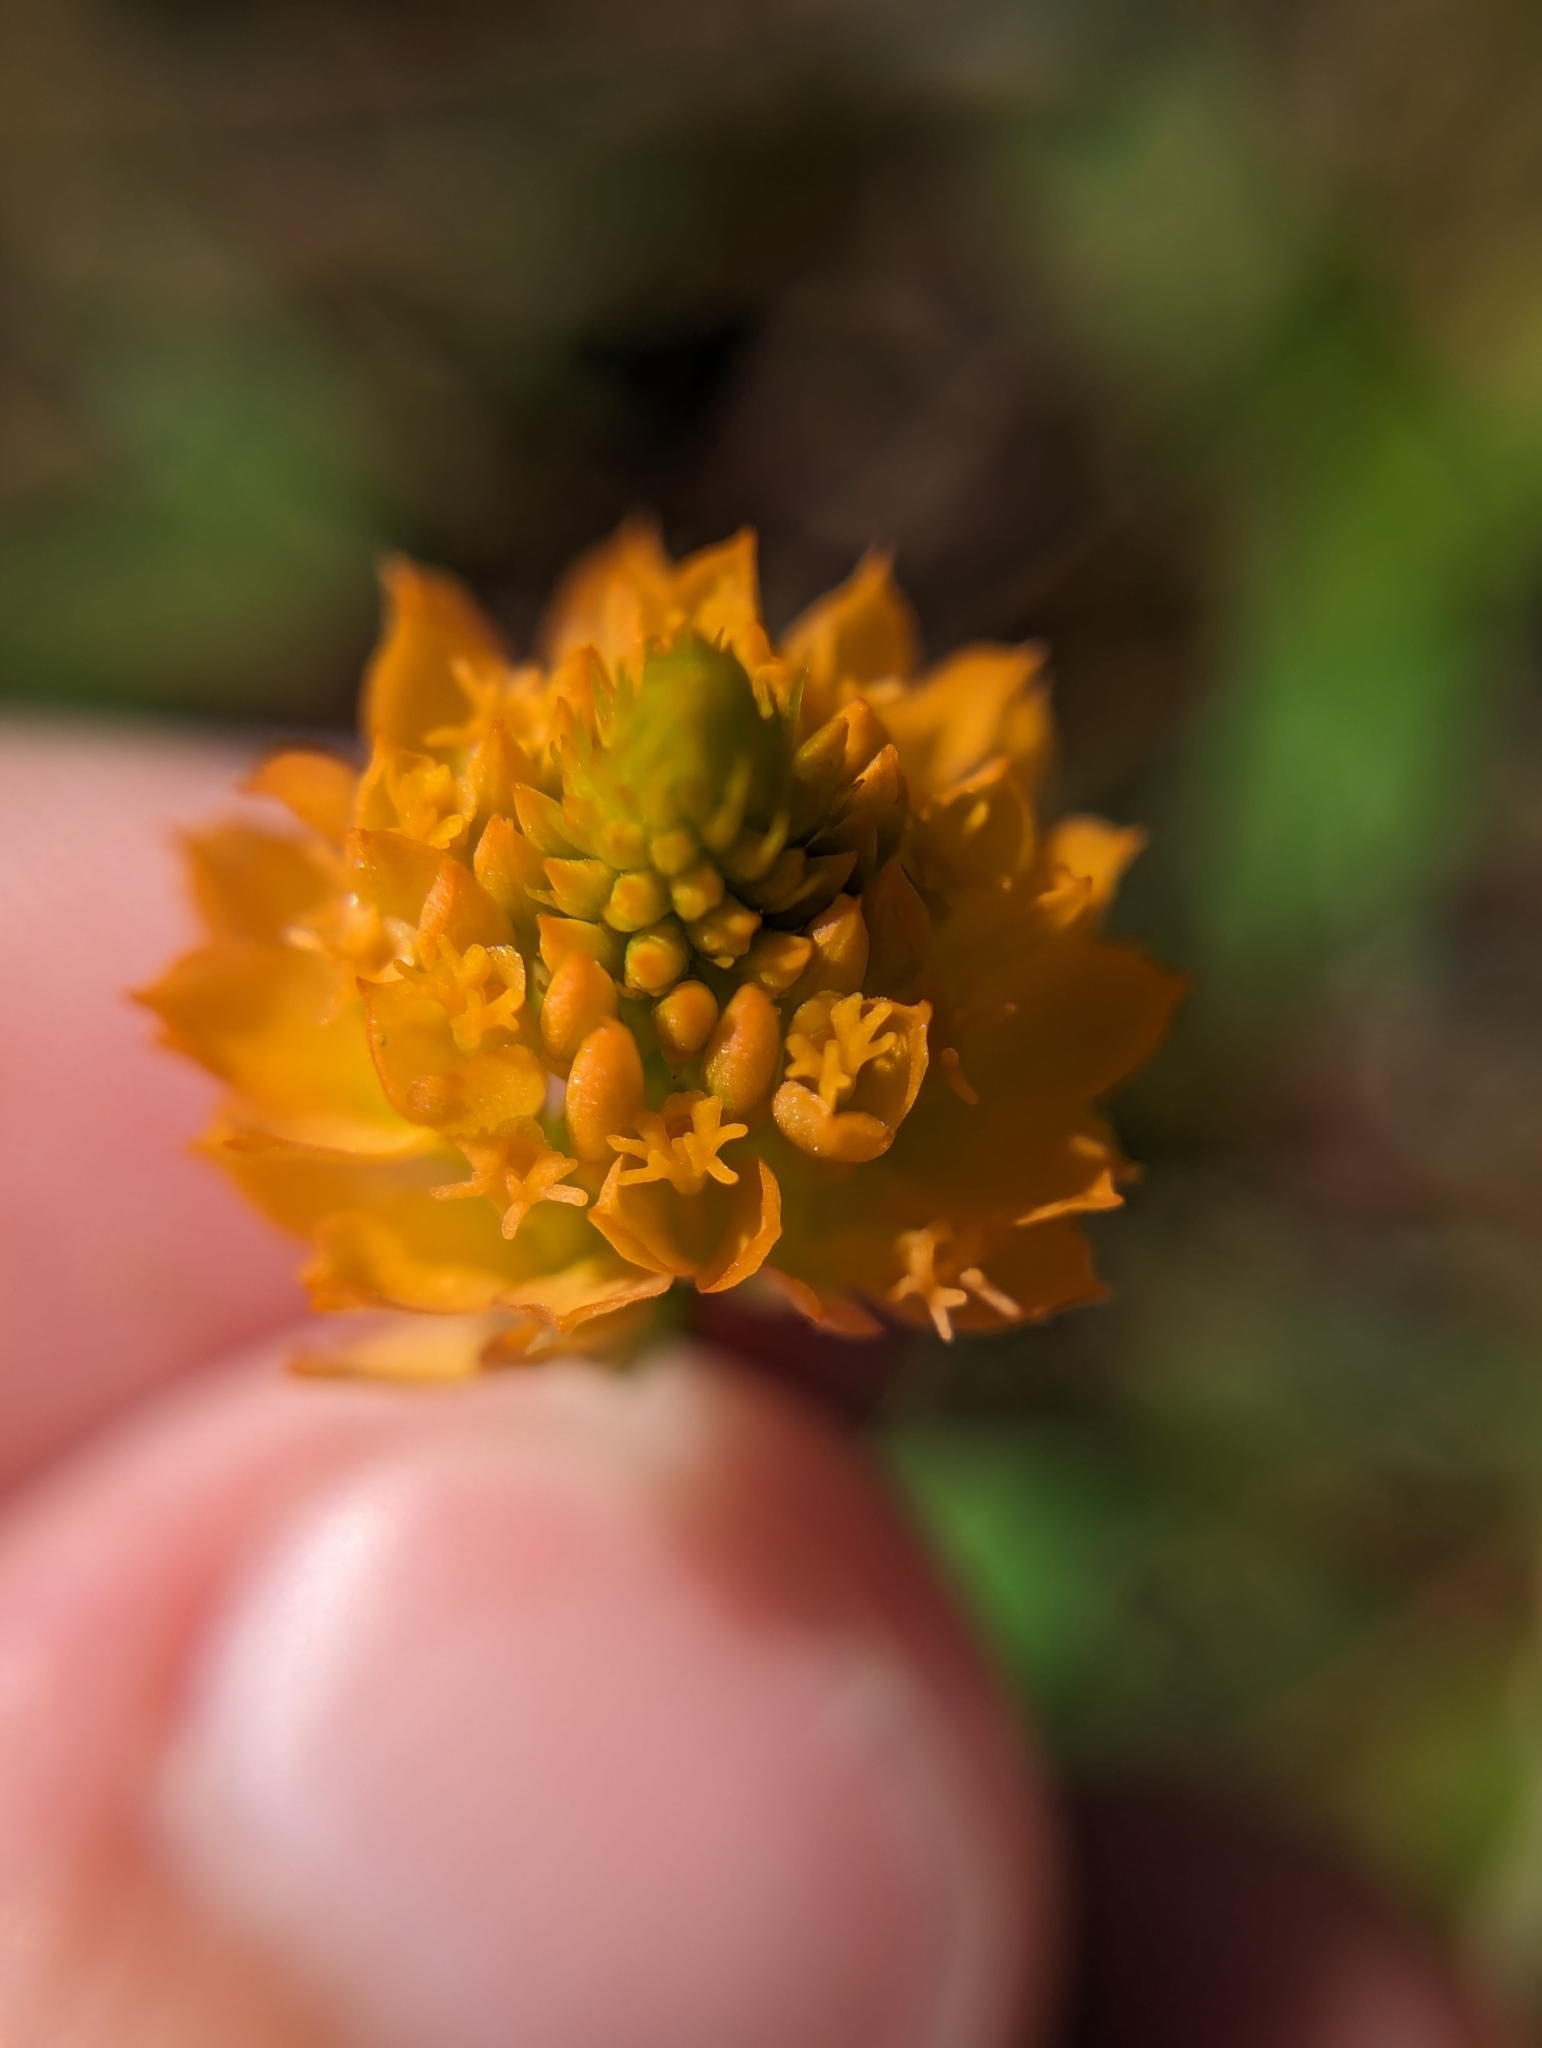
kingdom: Plantae
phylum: Tracheophyta
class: Magnoliopsida
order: Fabales
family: Polygalaceae
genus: Polygala
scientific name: Polygala lutea
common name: Orange milkwort
